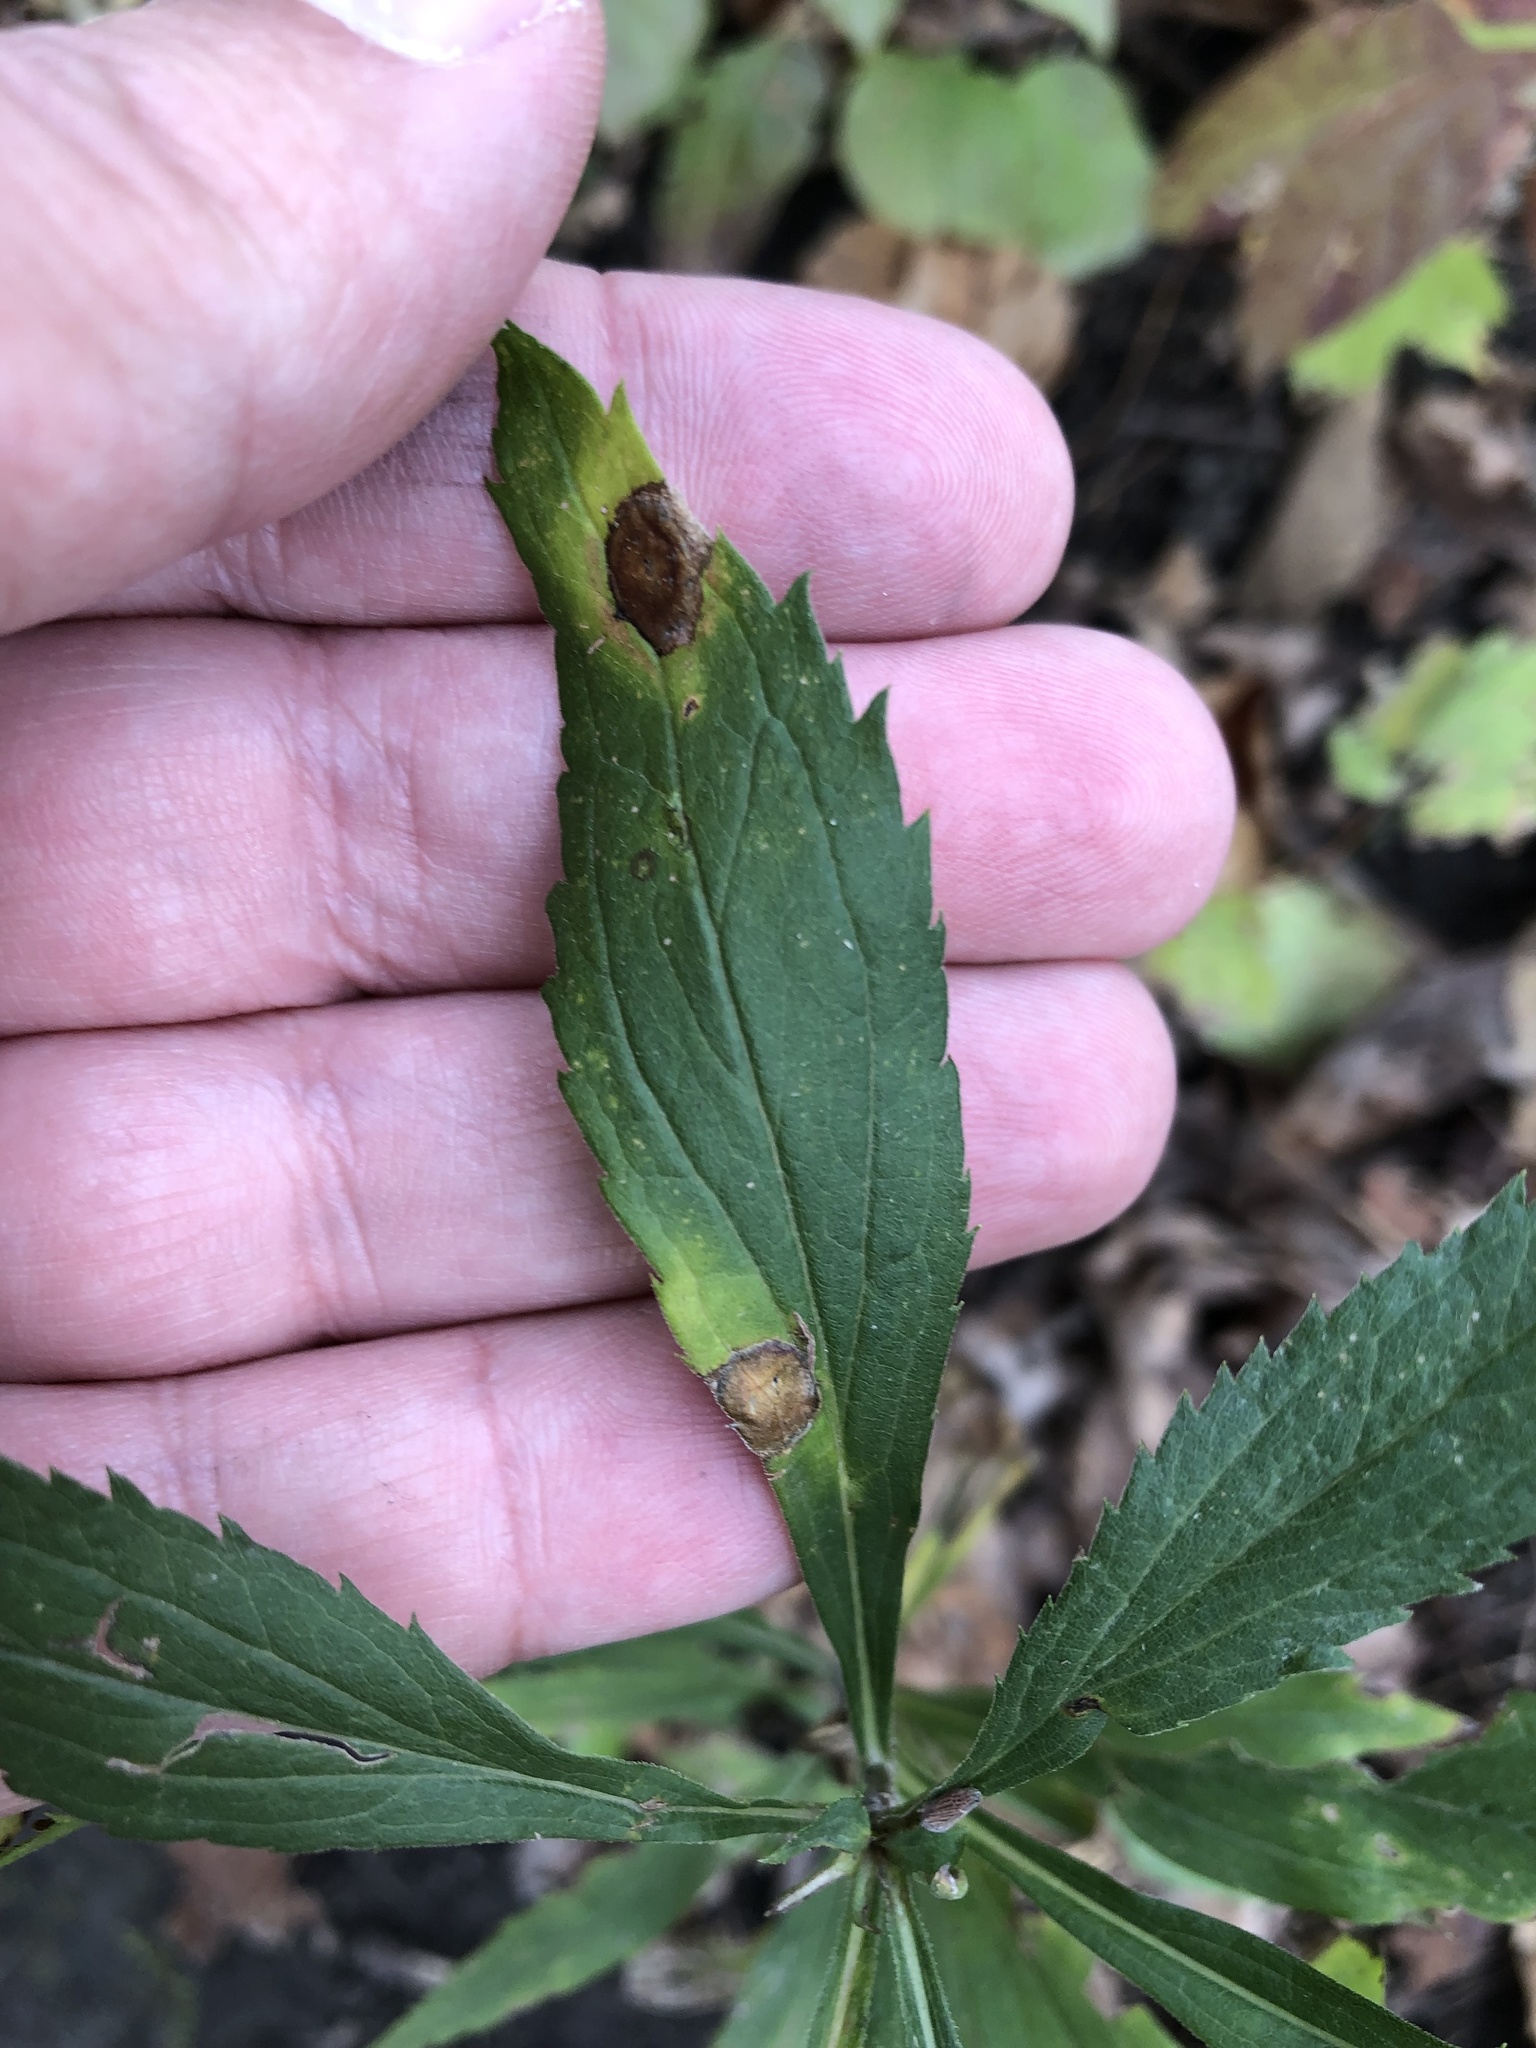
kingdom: Animalia
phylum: Arthropoda
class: Insecta
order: Diptera
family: Cecidomyiidae
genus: Asteromyia
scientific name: Asteromyia carbonifera
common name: Carbonifera goldenrod gall midge
